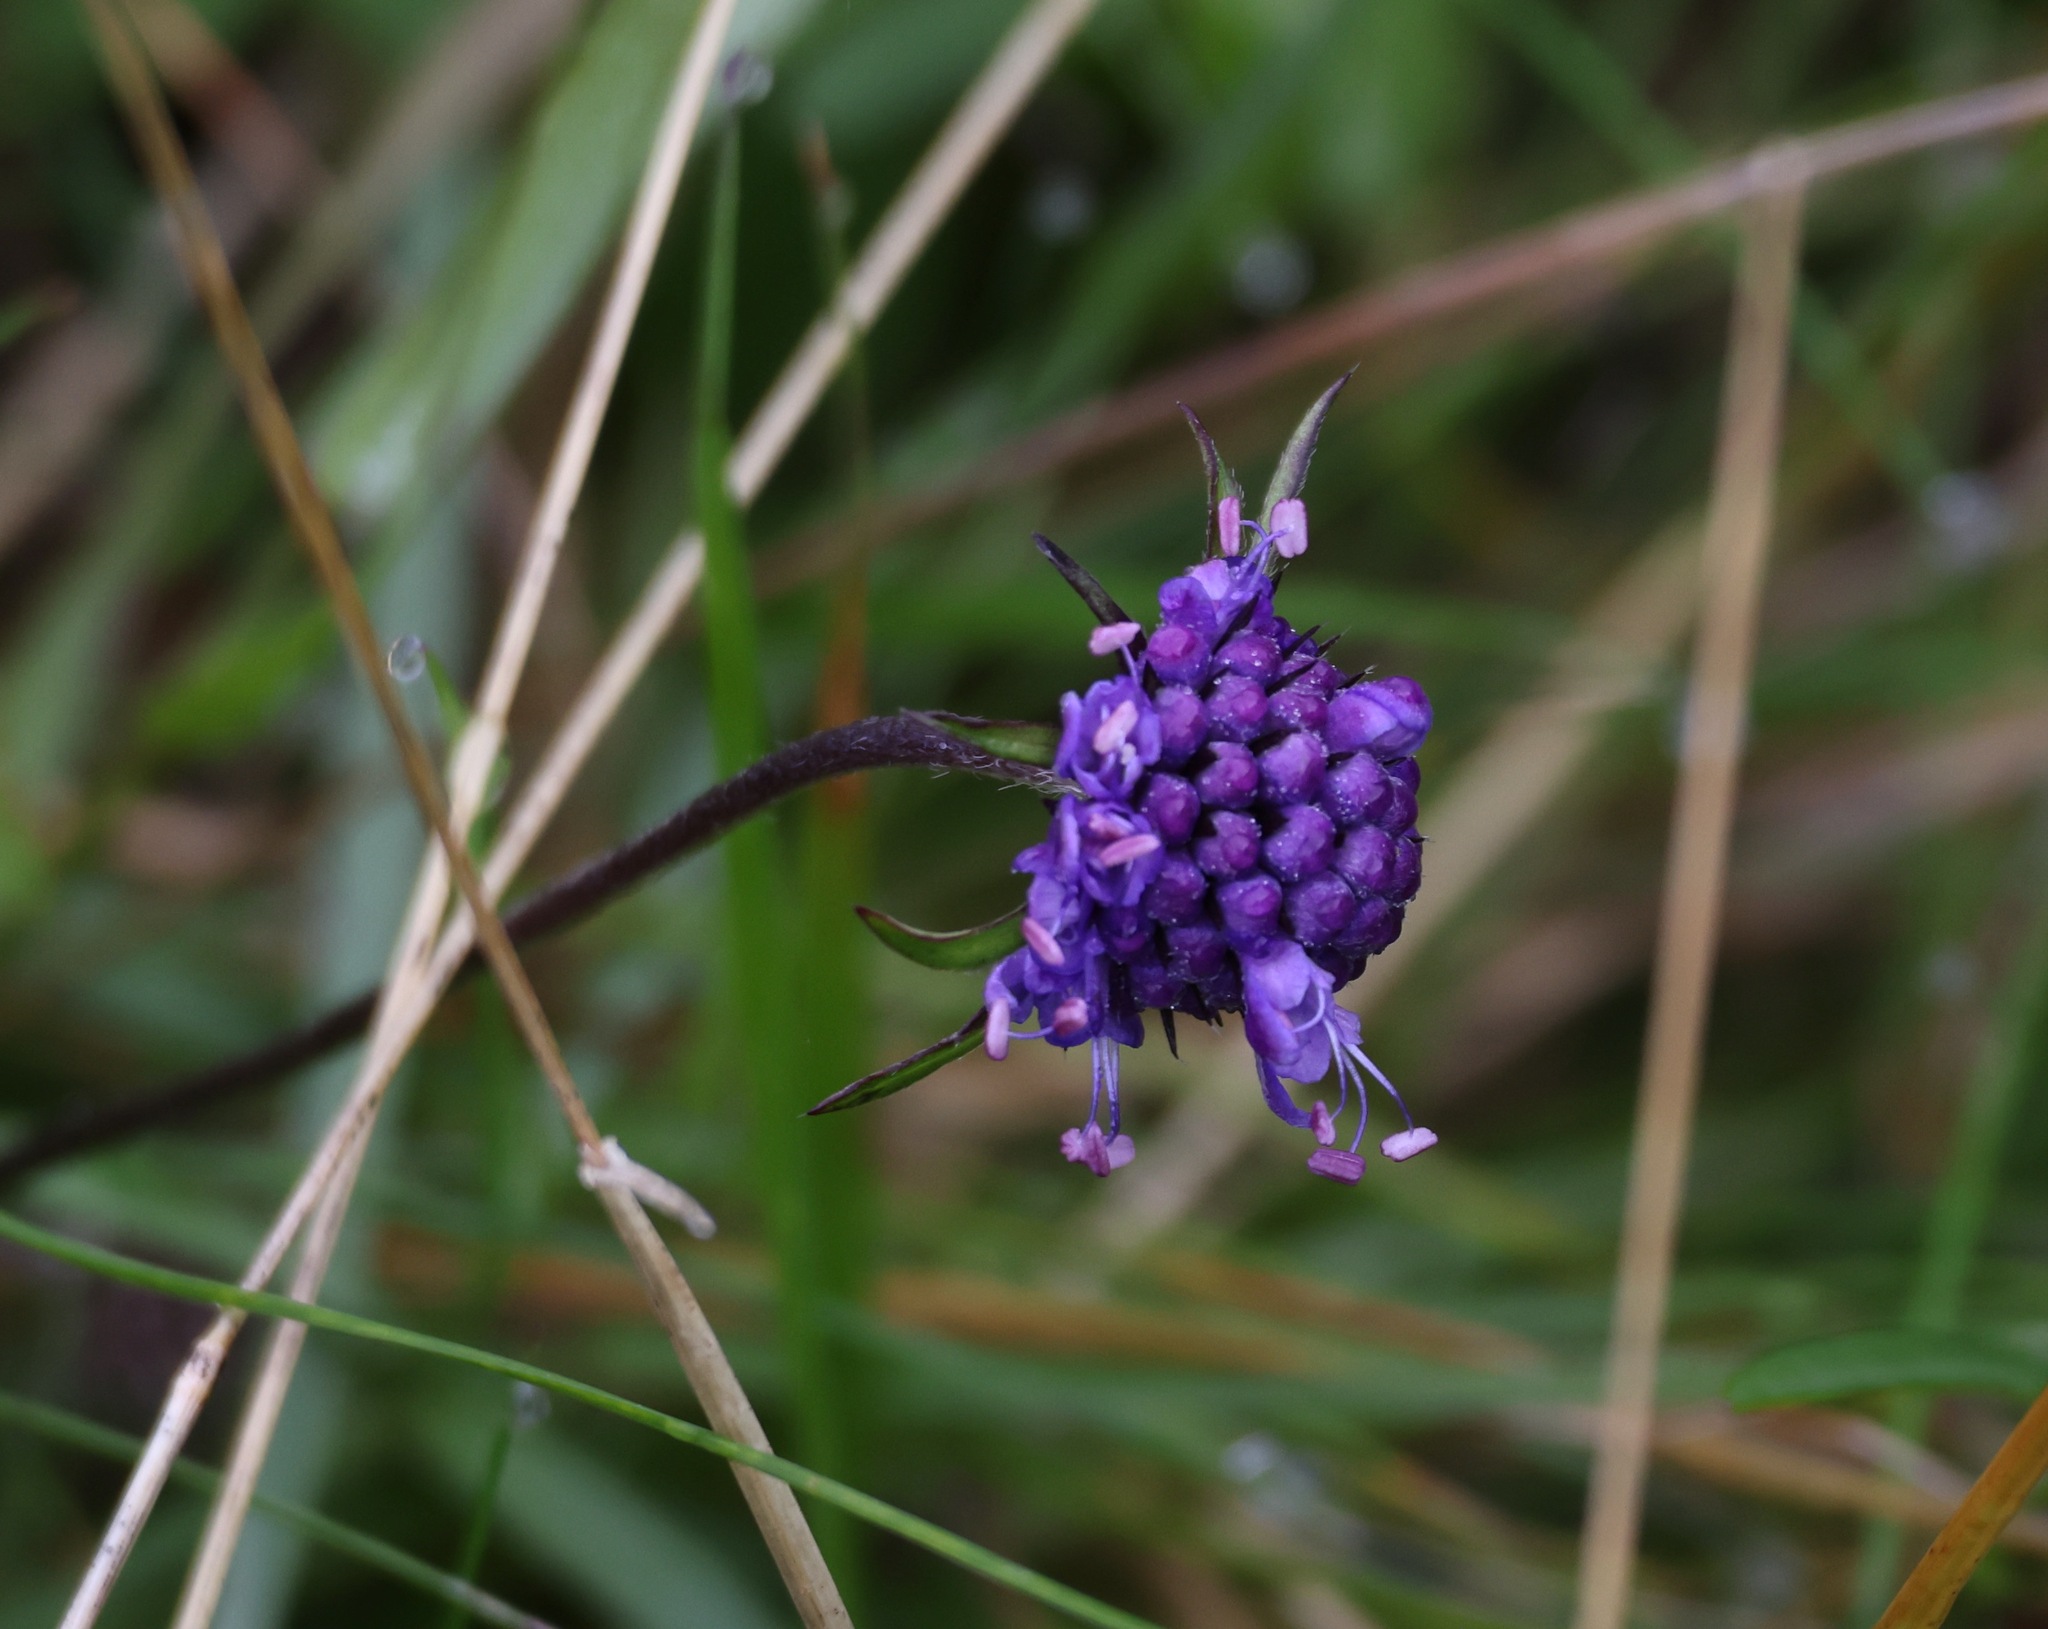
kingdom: Plantae
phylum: Tracheophyta
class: Magnoliopsida
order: Dipsacales
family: Caprifoliaceae
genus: Succisa
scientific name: Succisa pratensis
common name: Devil's-bit
